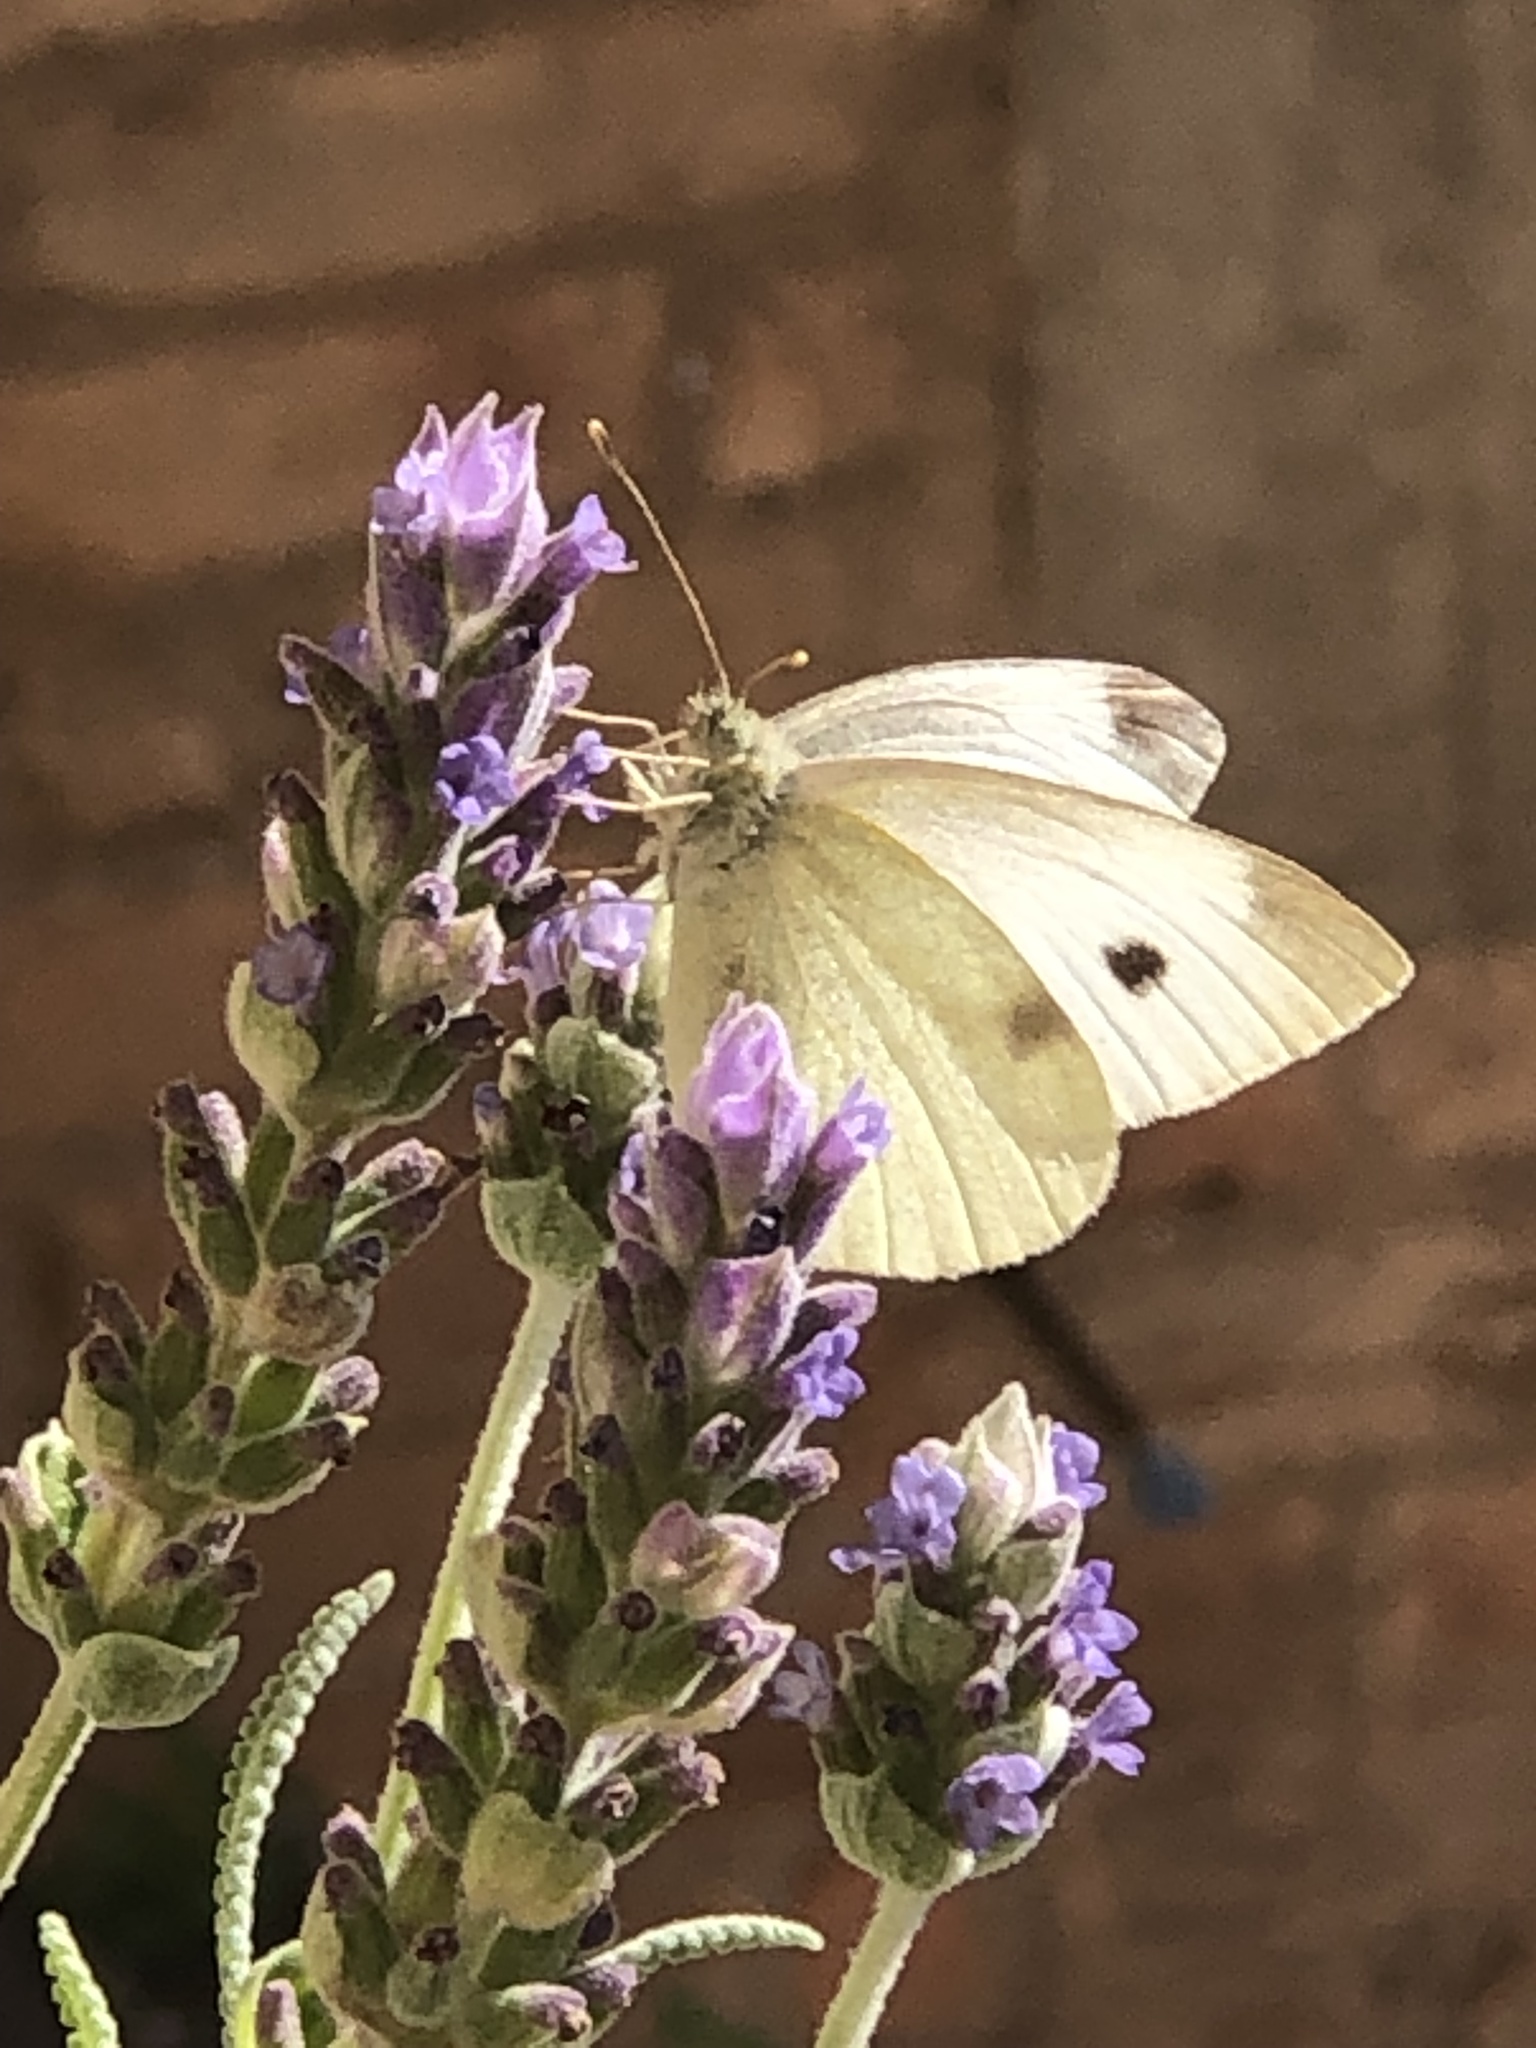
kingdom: Animalia
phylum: Arthropoda
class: Insecta
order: Lepidoptera
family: Pieridae
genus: Pieris
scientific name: Pieris rapae
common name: Small white
